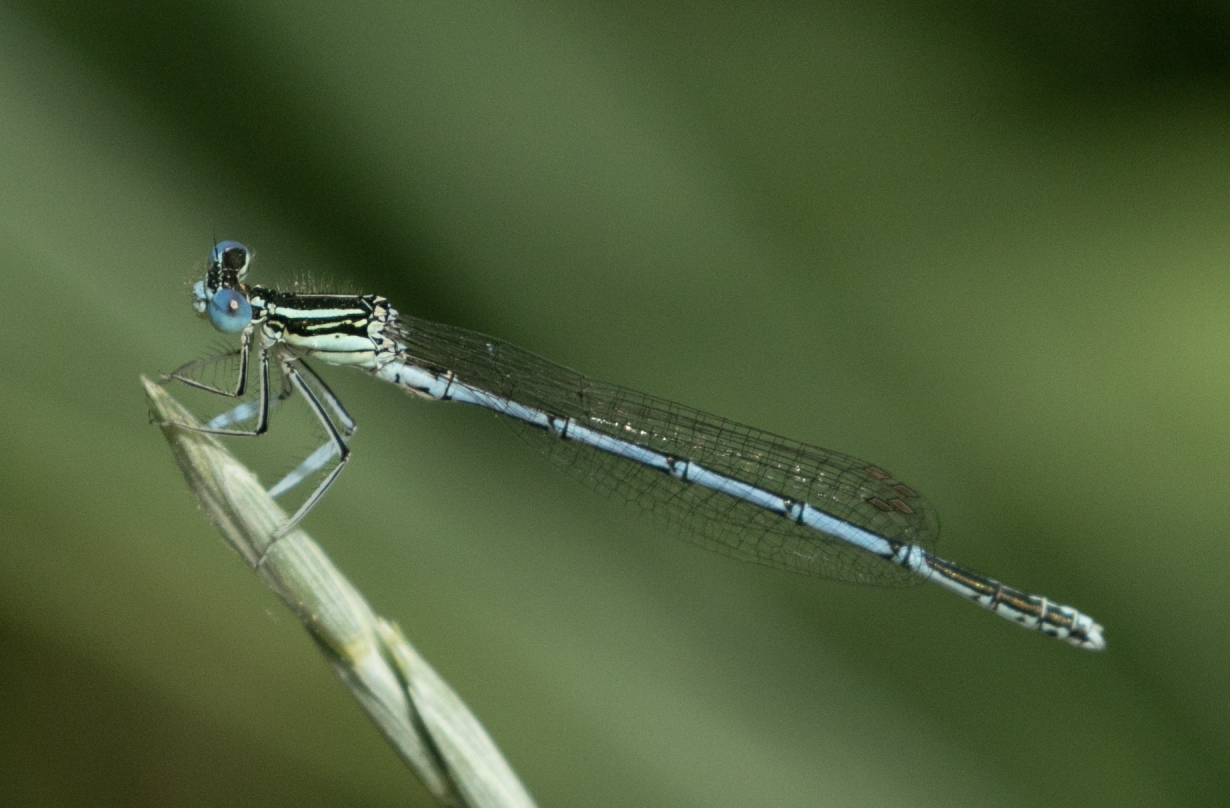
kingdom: Animalia
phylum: Arthropoda
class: Insecta
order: Odonata
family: Platycnemididae
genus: Platycnemis
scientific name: Platycnemis pennipes
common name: White-legged damselfly
